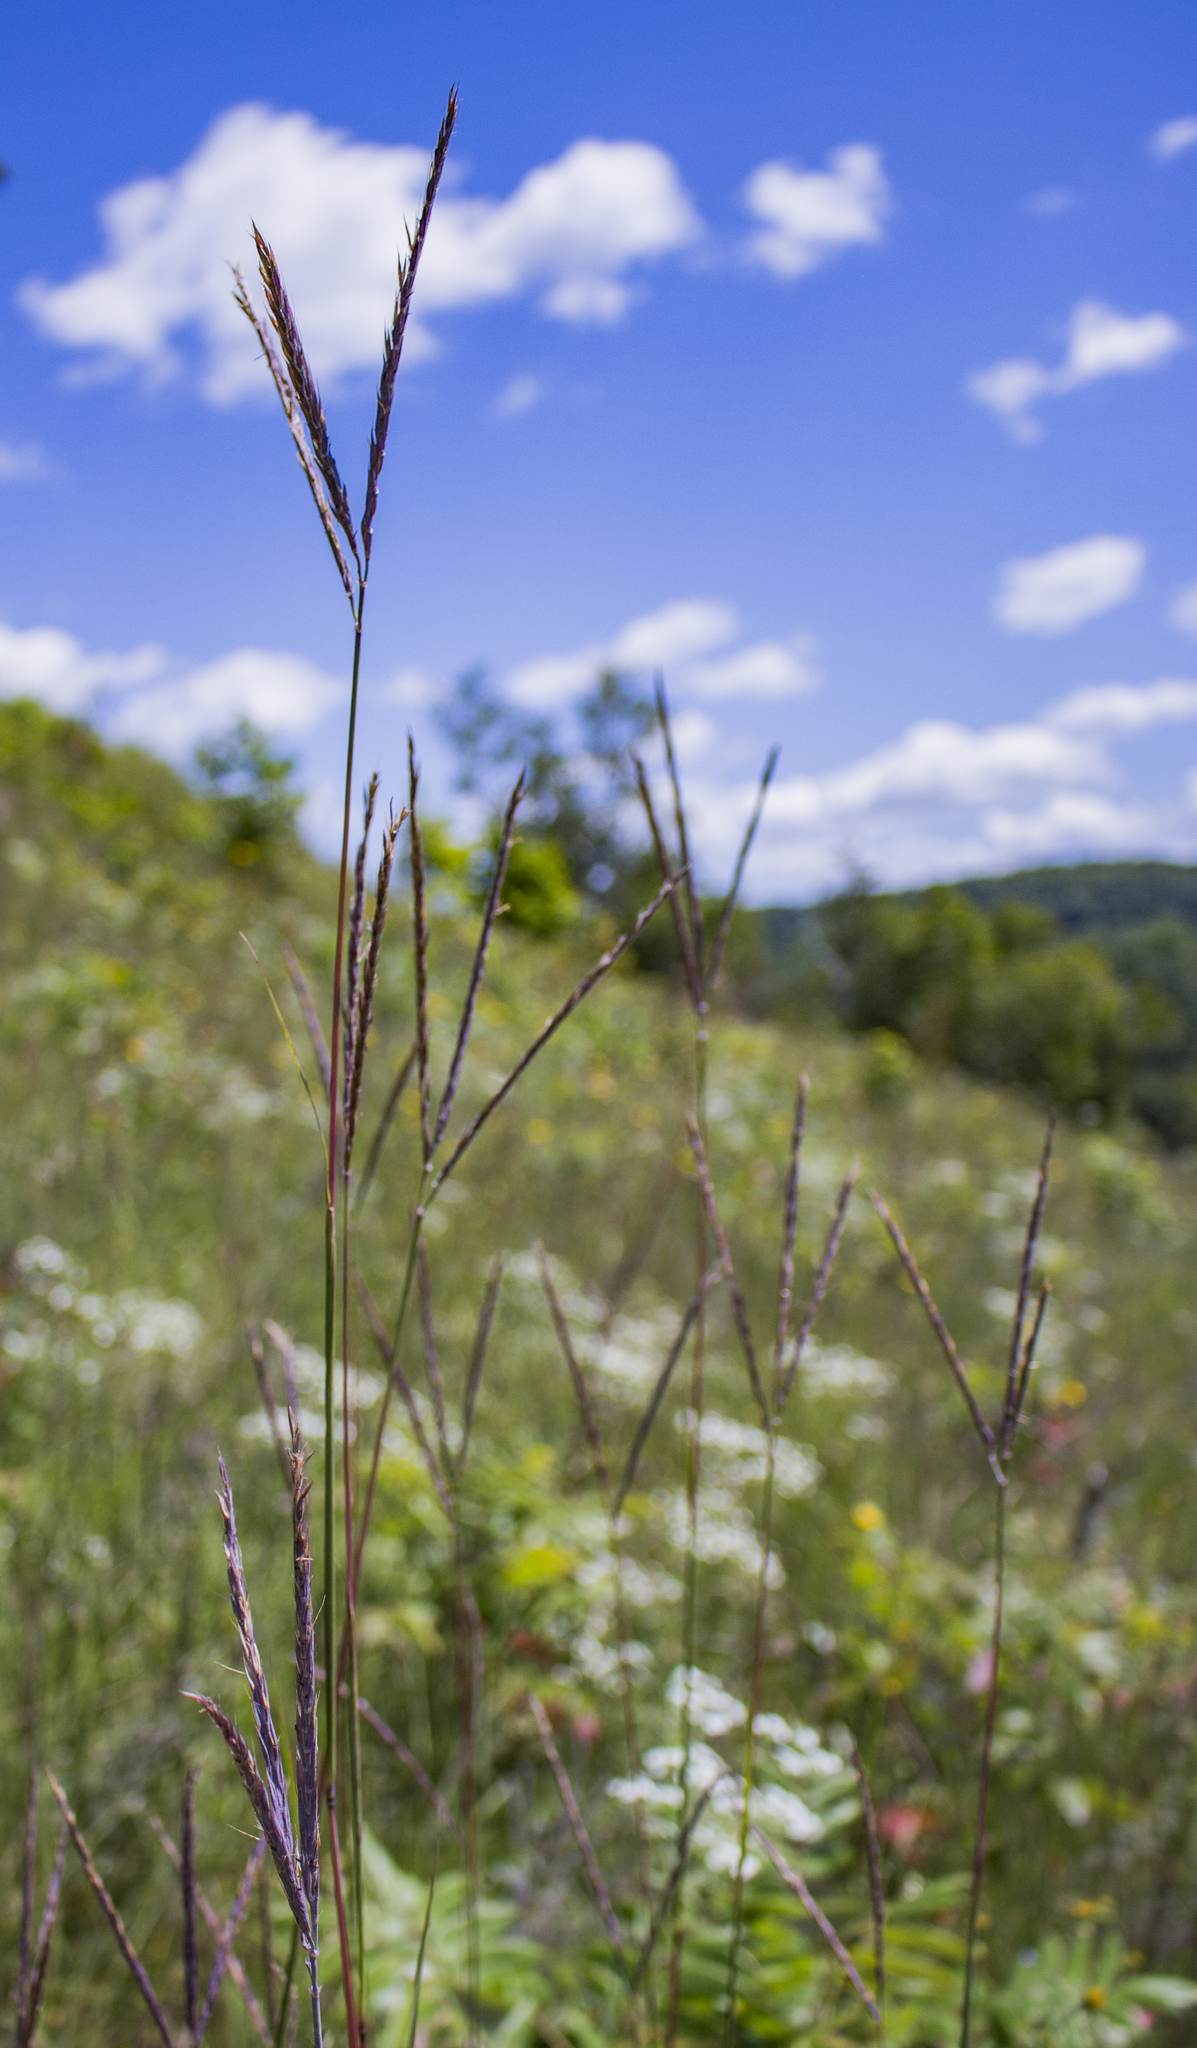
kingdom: Plantae
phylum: Tracheophyta
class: Liliopsida
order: Poales
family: Poaceae
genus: Andropogon
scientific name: Andropogon gerardi
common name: Big bluestem
